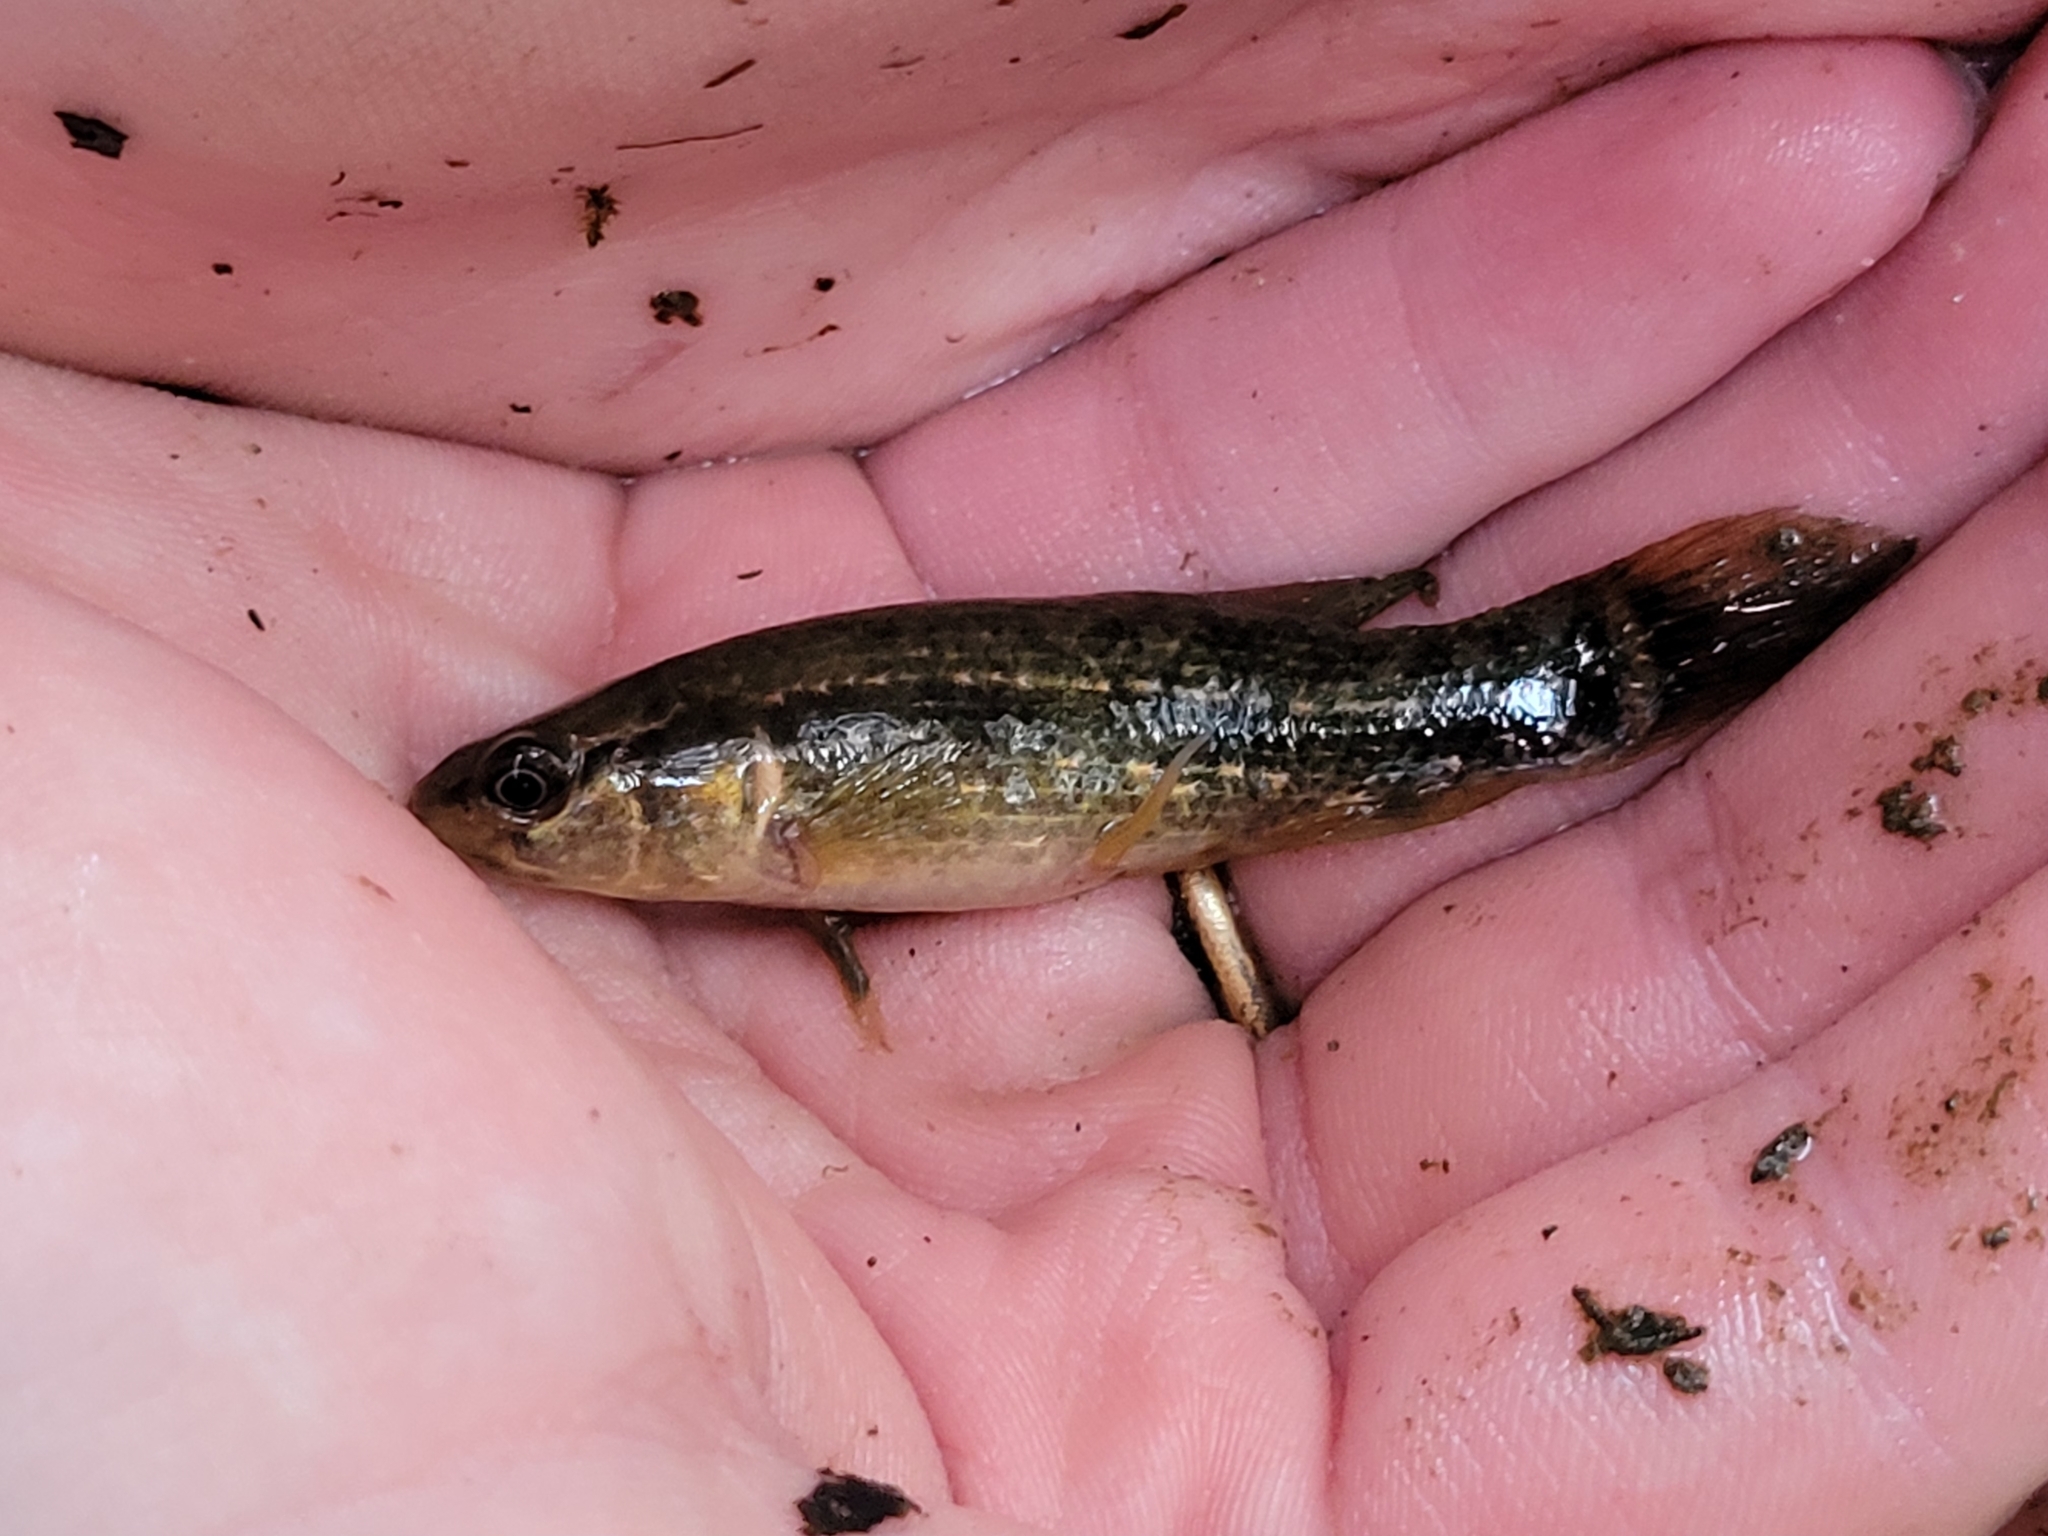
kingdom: Animalia
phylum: Chordata
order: Esociformes
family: Umbridae
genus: Umbra
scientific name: Umbra pygmaea
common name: Eastern mudminnow
